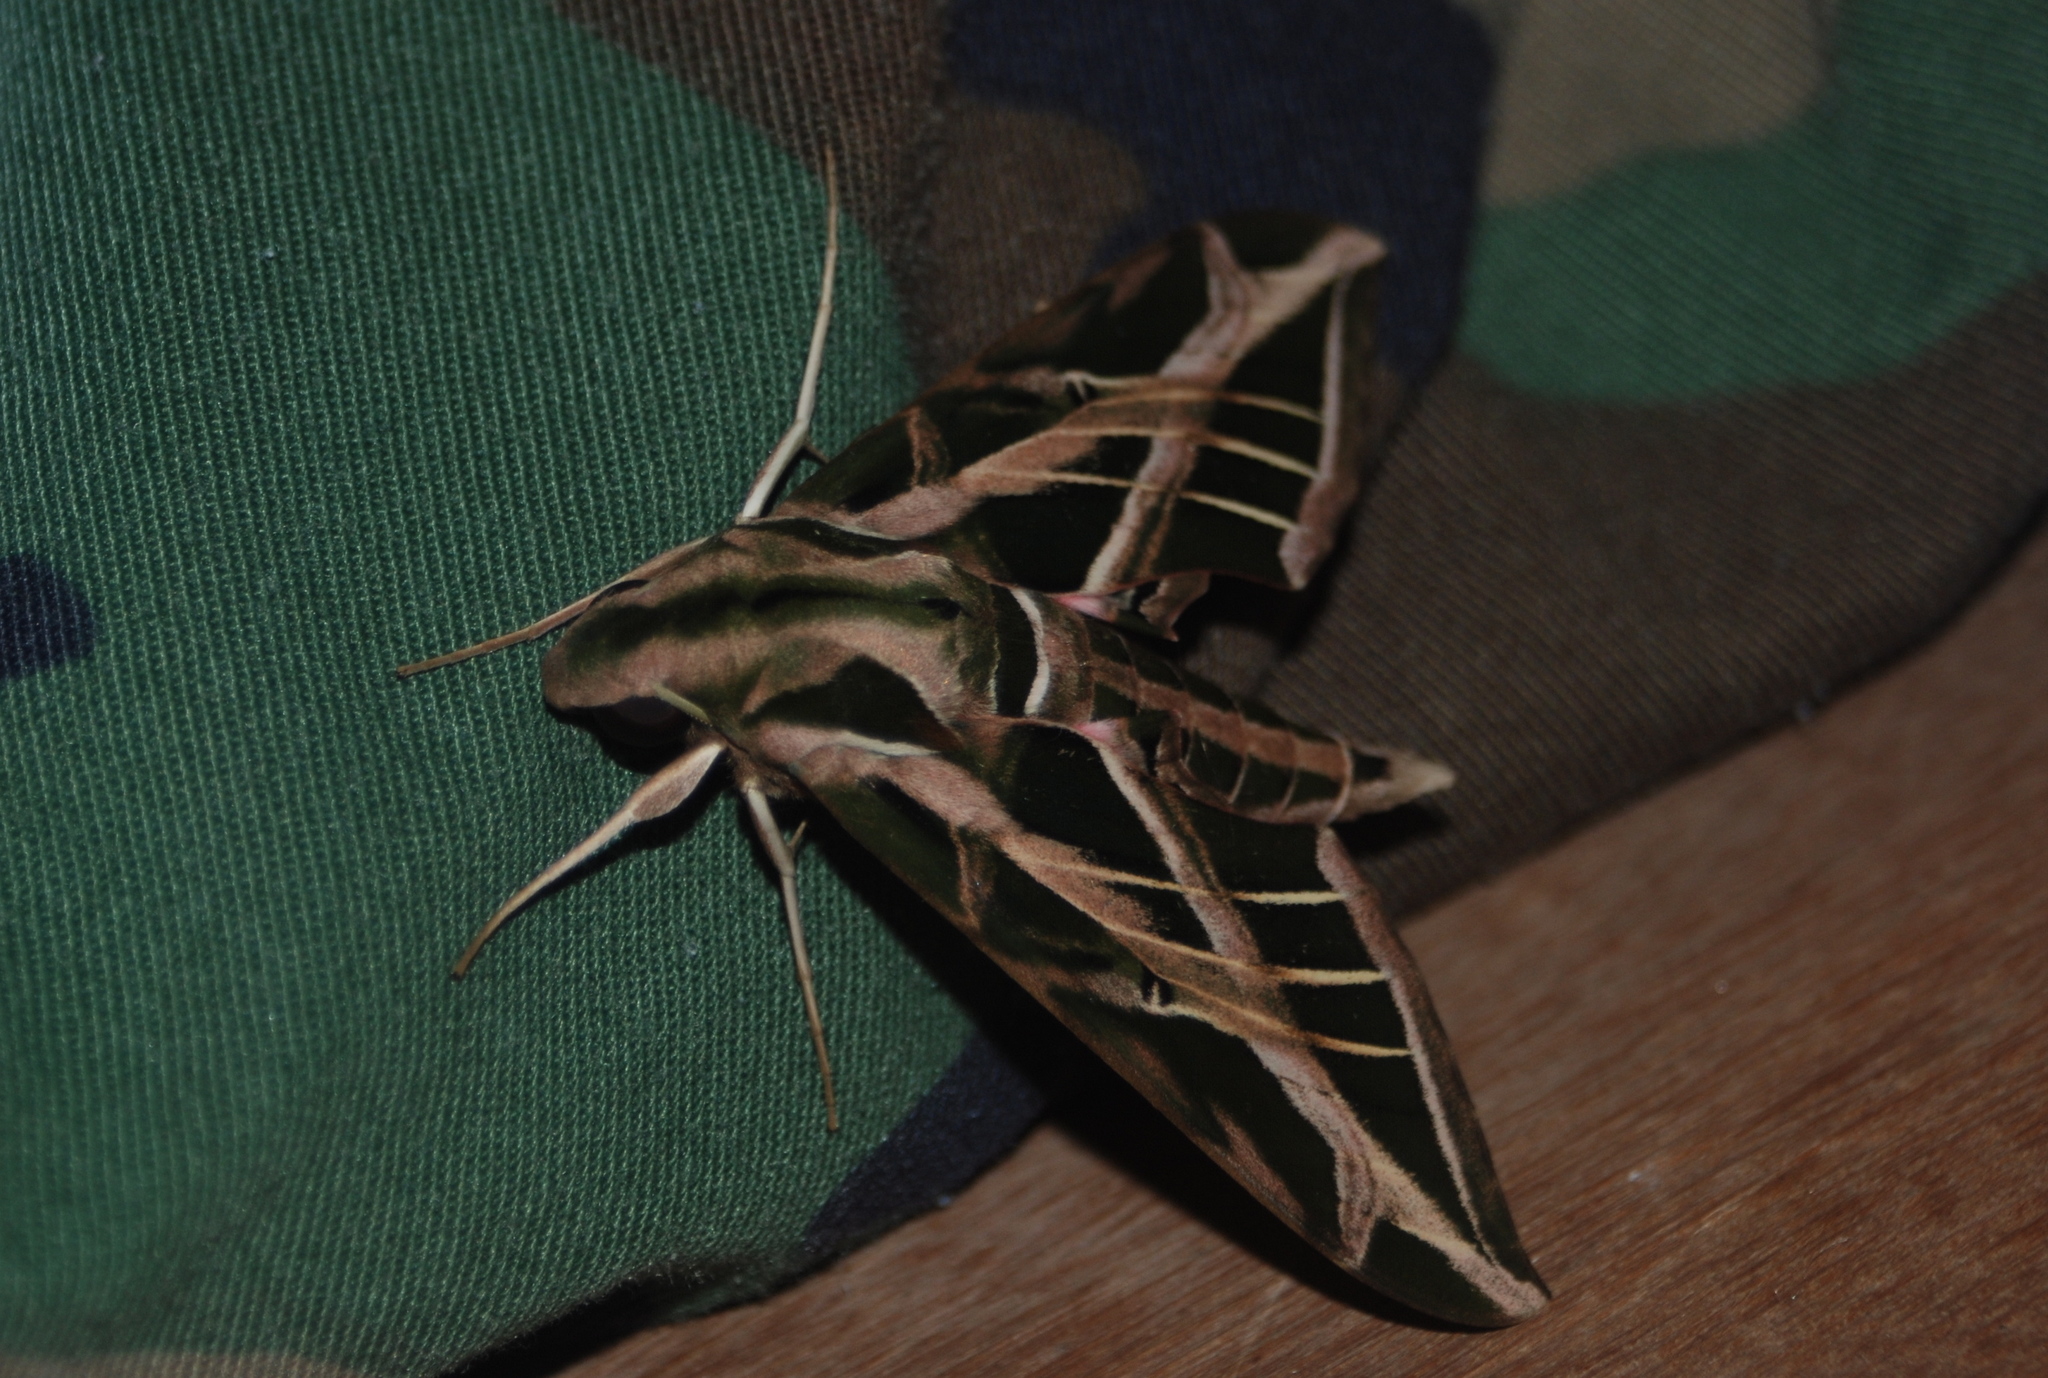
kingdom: Animalia
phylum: Arthropoda
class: Insecta
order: Lepidoptera
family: Sphingidae
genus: Eumorpha
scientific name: Eumorpha vitis
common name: Vine sphinx
